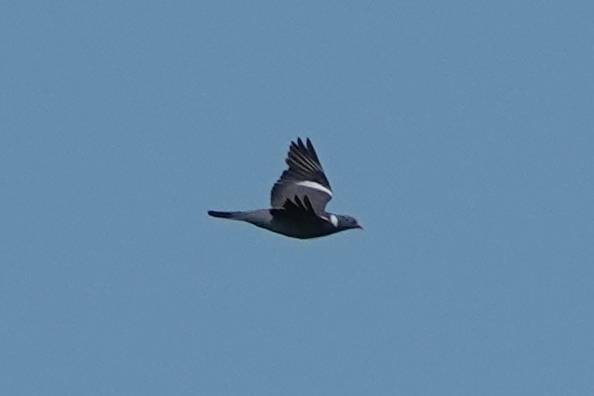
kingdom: Animalia
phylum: Chordata
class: Aves
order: Columbiformes
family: Columbidae
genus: Columba
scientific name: Columba palumbus
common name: Common wood pigeon
